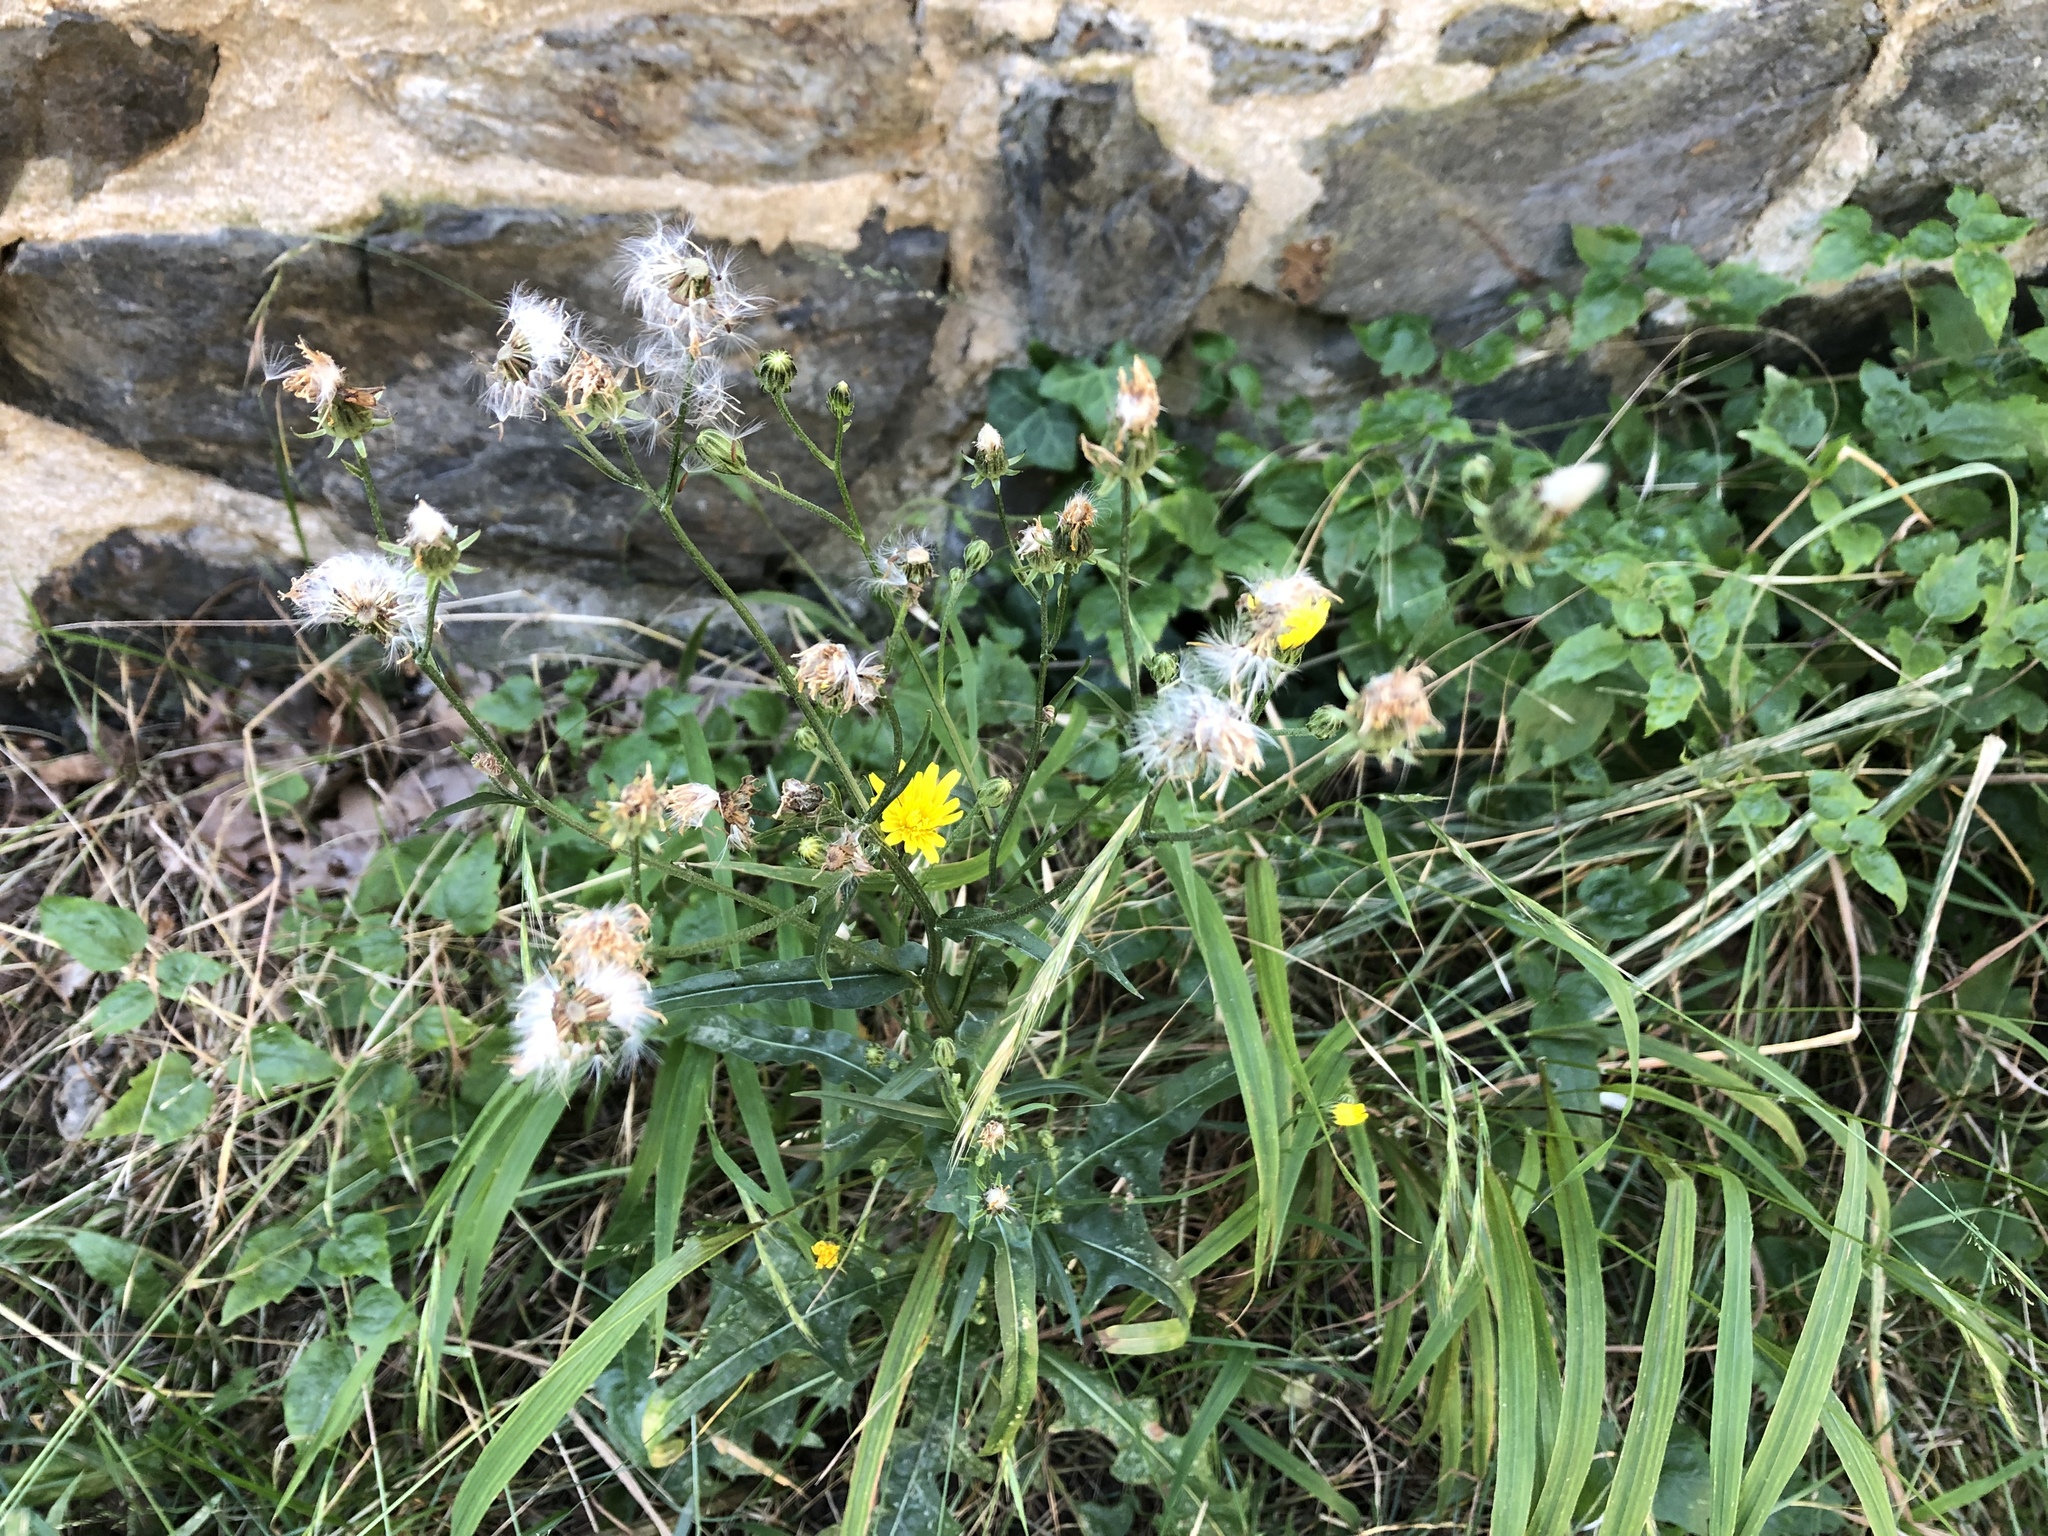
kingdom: Plantae
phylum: Tracheophyta
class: Magnoliopsida
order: Asterales
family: Asteraceae
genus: Crepis
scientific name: Crepis biennis
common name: Rough hawk's-beard
